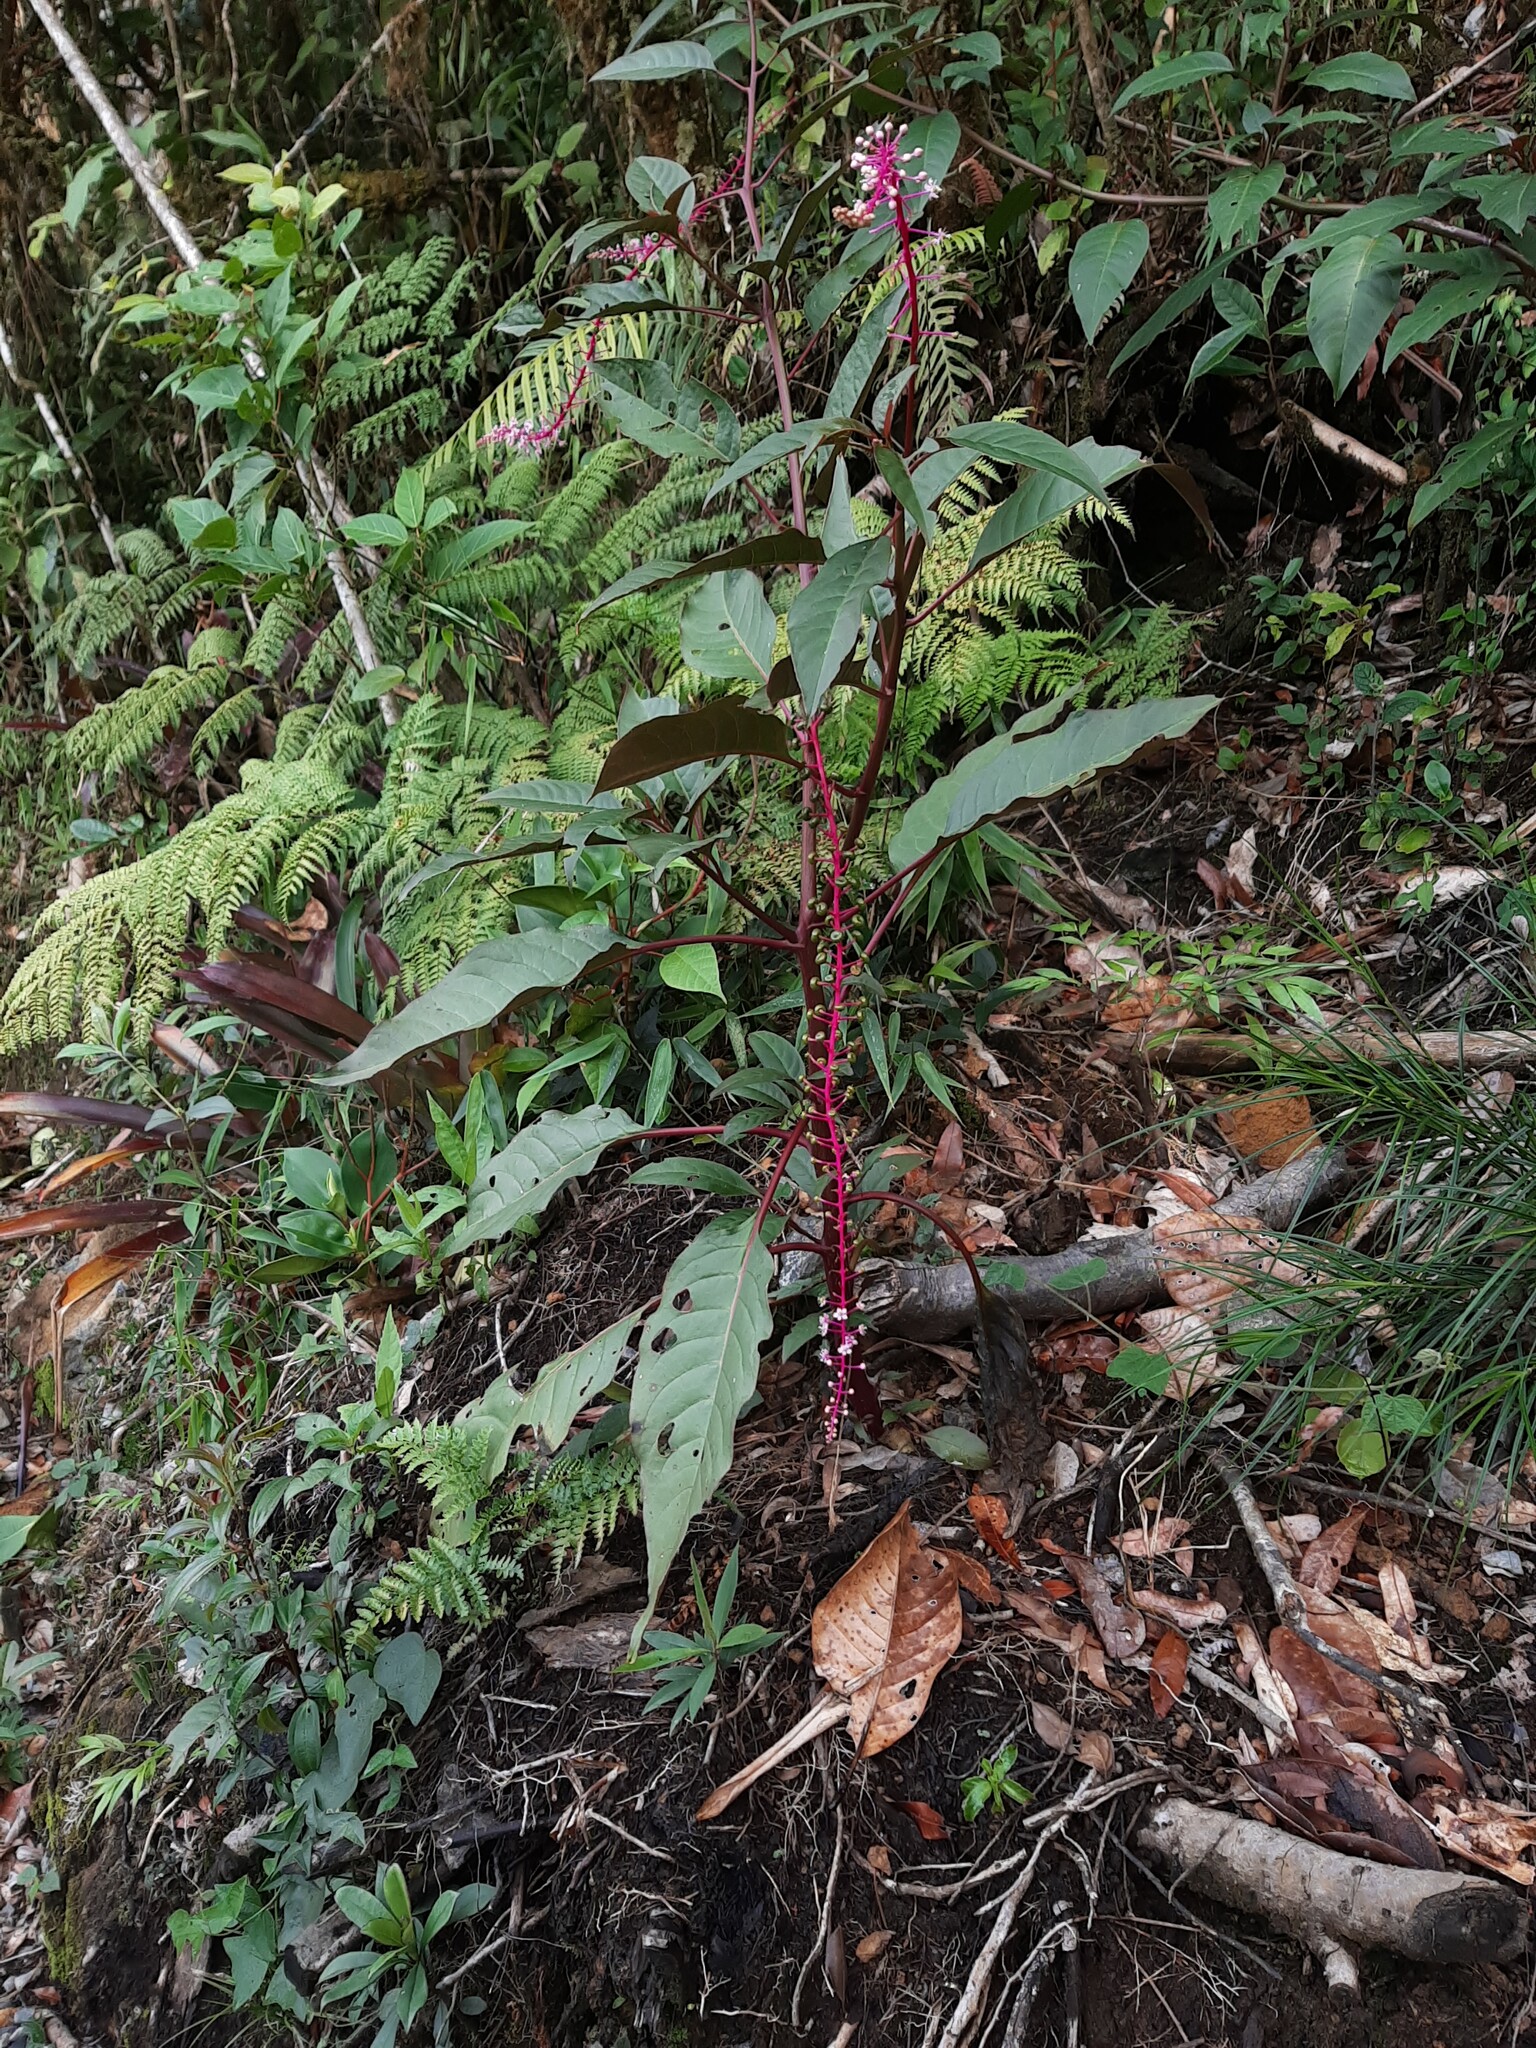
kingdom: Plantae
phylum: Tracheophyta
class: Magnoliopsida
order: Caryophyllales
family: Phytolaccaceae
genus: Phytolacca
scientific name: Phytolacca rivinoides
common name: Venezuelan pokeweed
